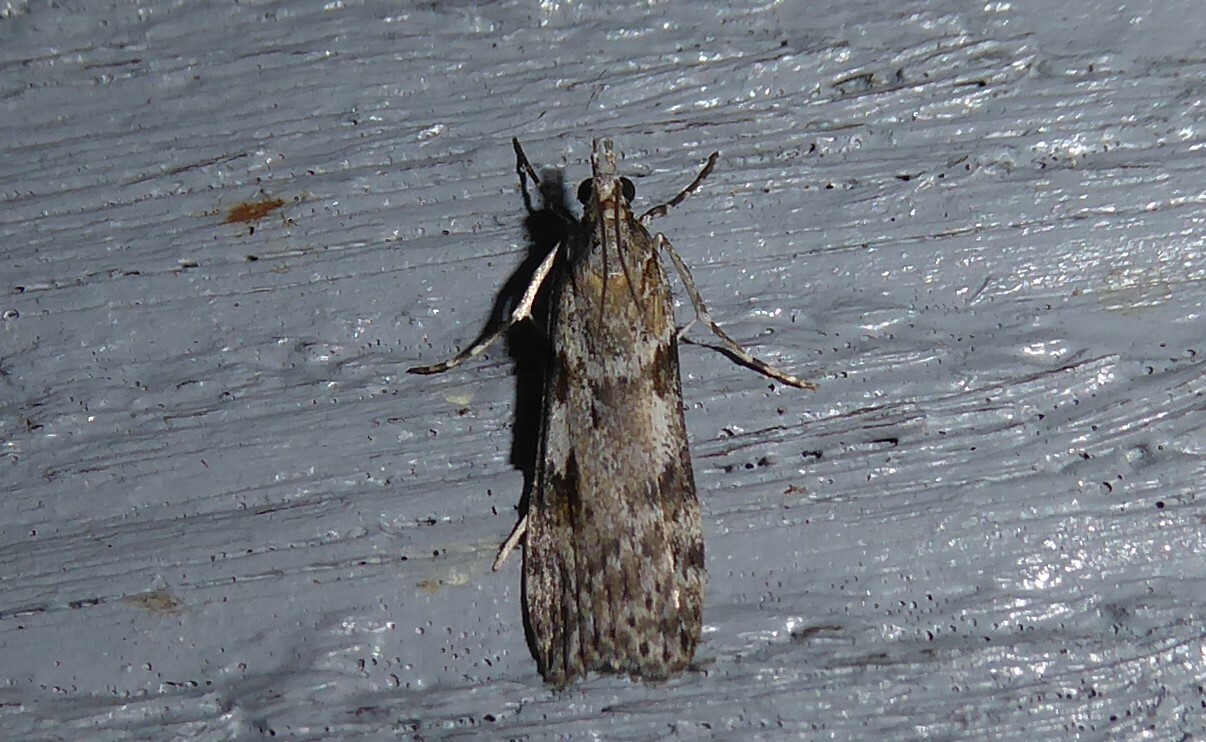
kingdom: Animalia
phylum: Arthropoda
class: Insecta
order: Lepidoptera
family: Crambidae
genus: Scoparia
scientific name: Scoparia halopis
